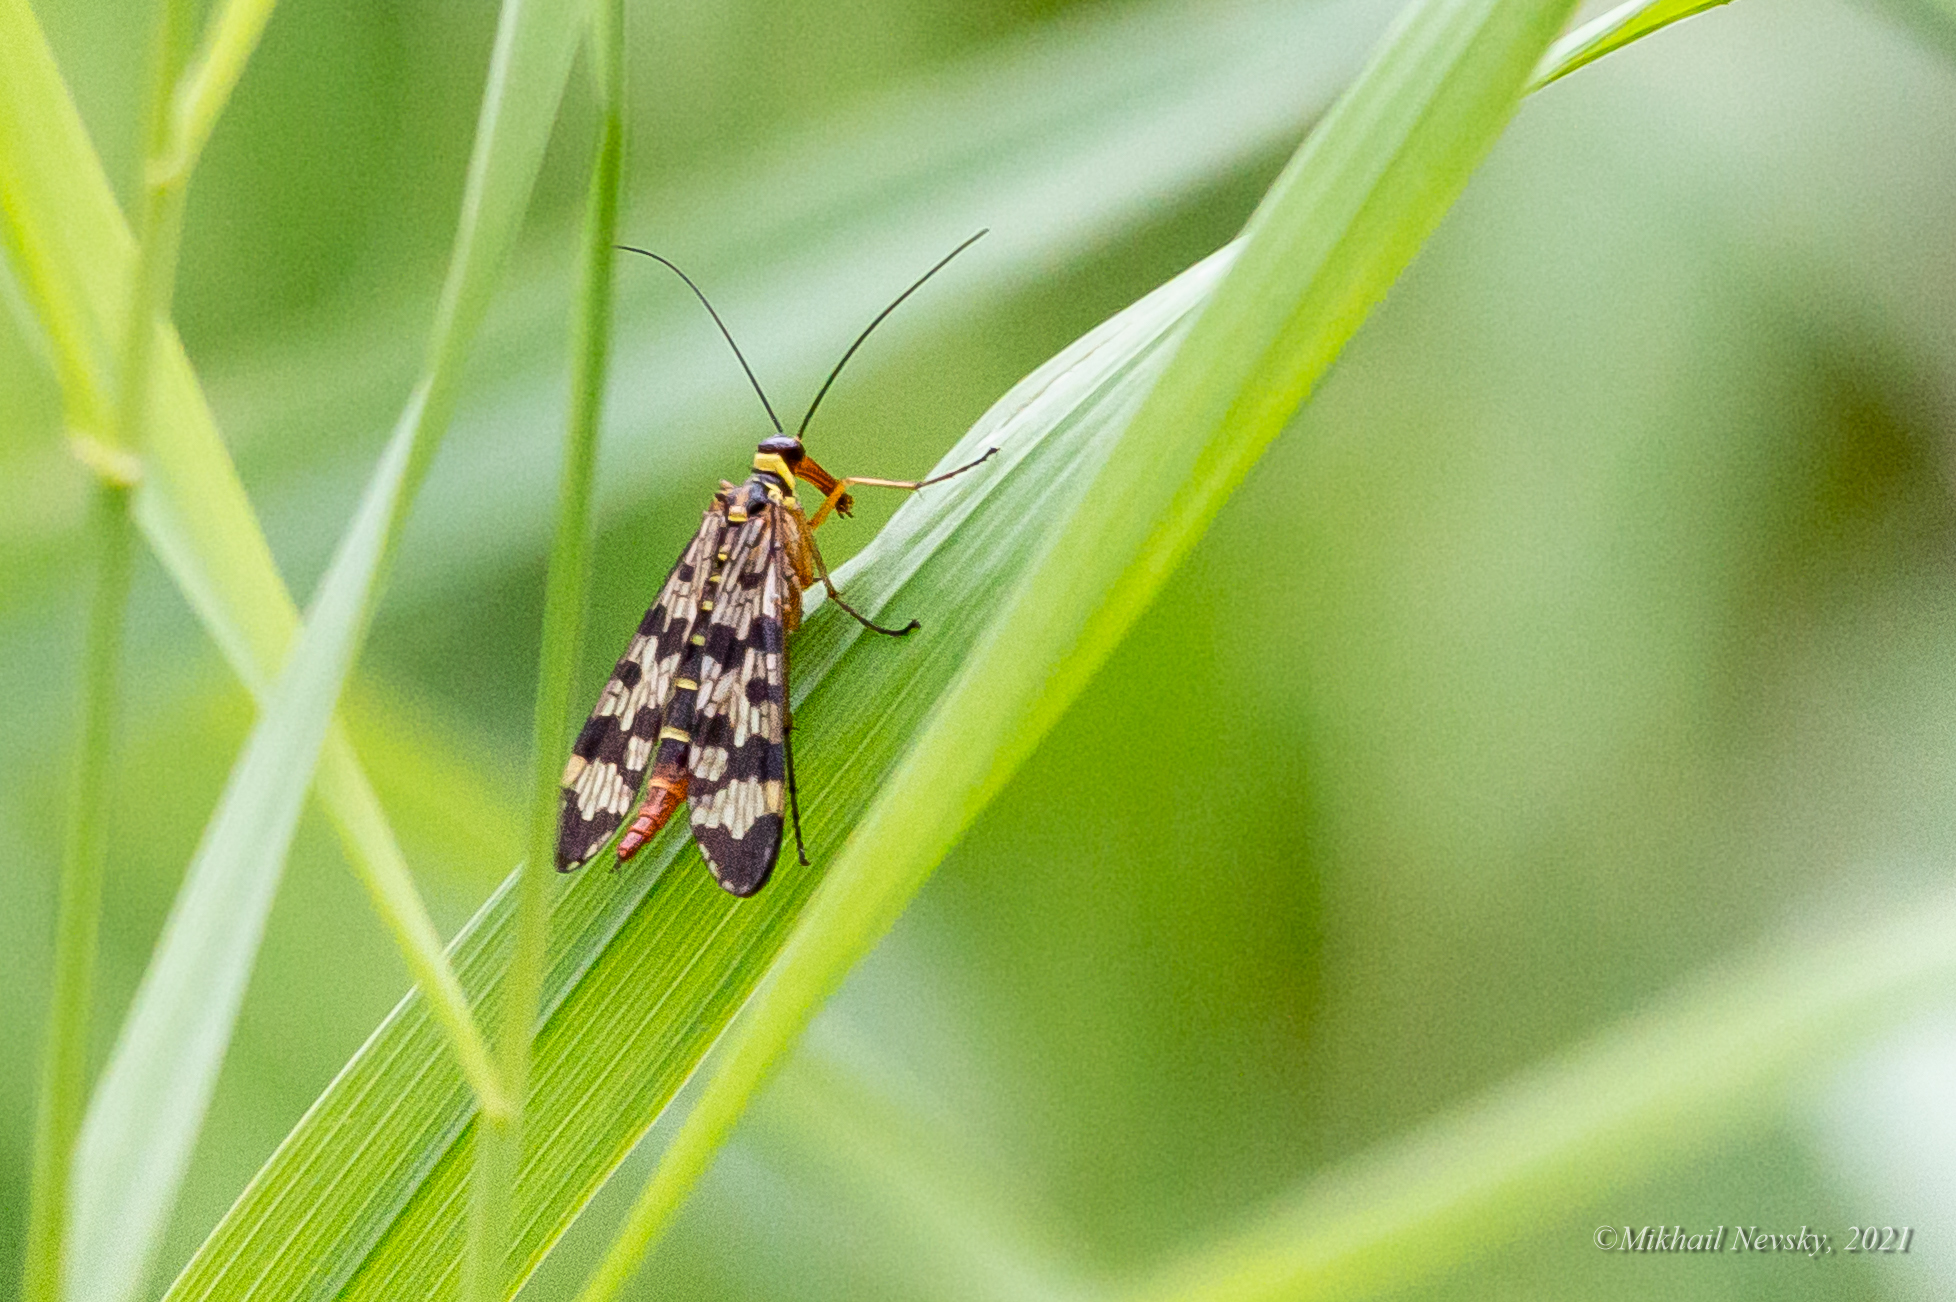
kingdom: Animalia
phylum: Arthropoda
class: Insecta
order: Mecoptera
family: Panorpidae
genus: Panorpa
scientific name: Panorpa communis
